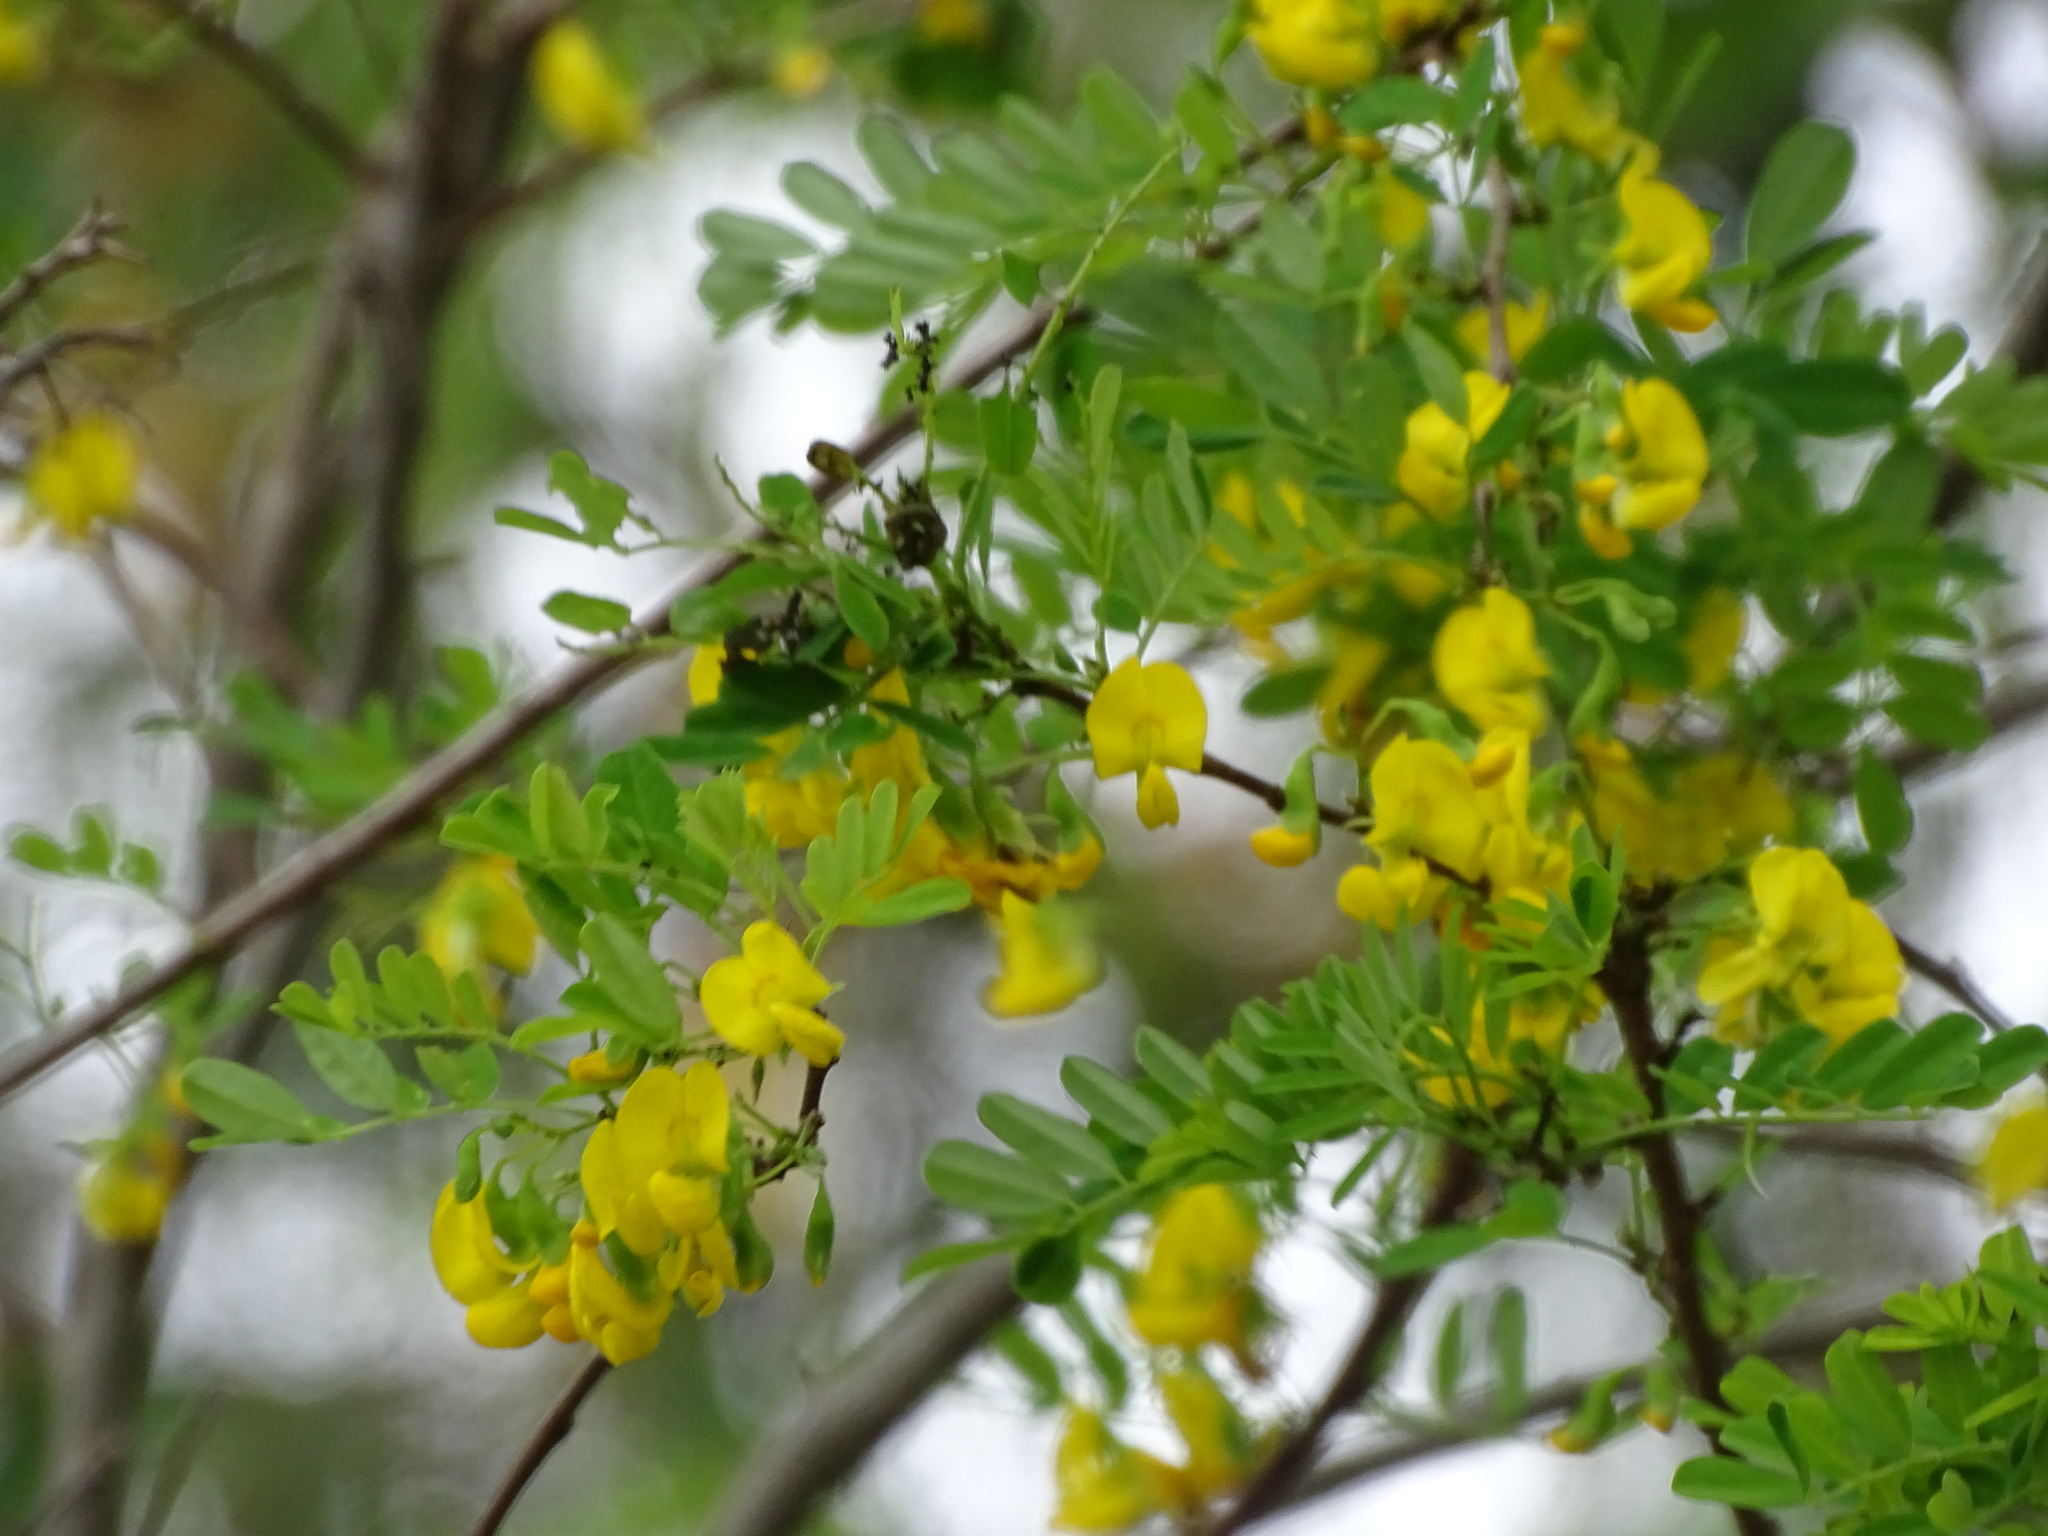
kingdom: Plantae
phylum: Tracheophyta
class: Magnoliopsida
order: Fabales
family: Fabaceae
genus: Diphysa
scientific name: Diphysa americana
